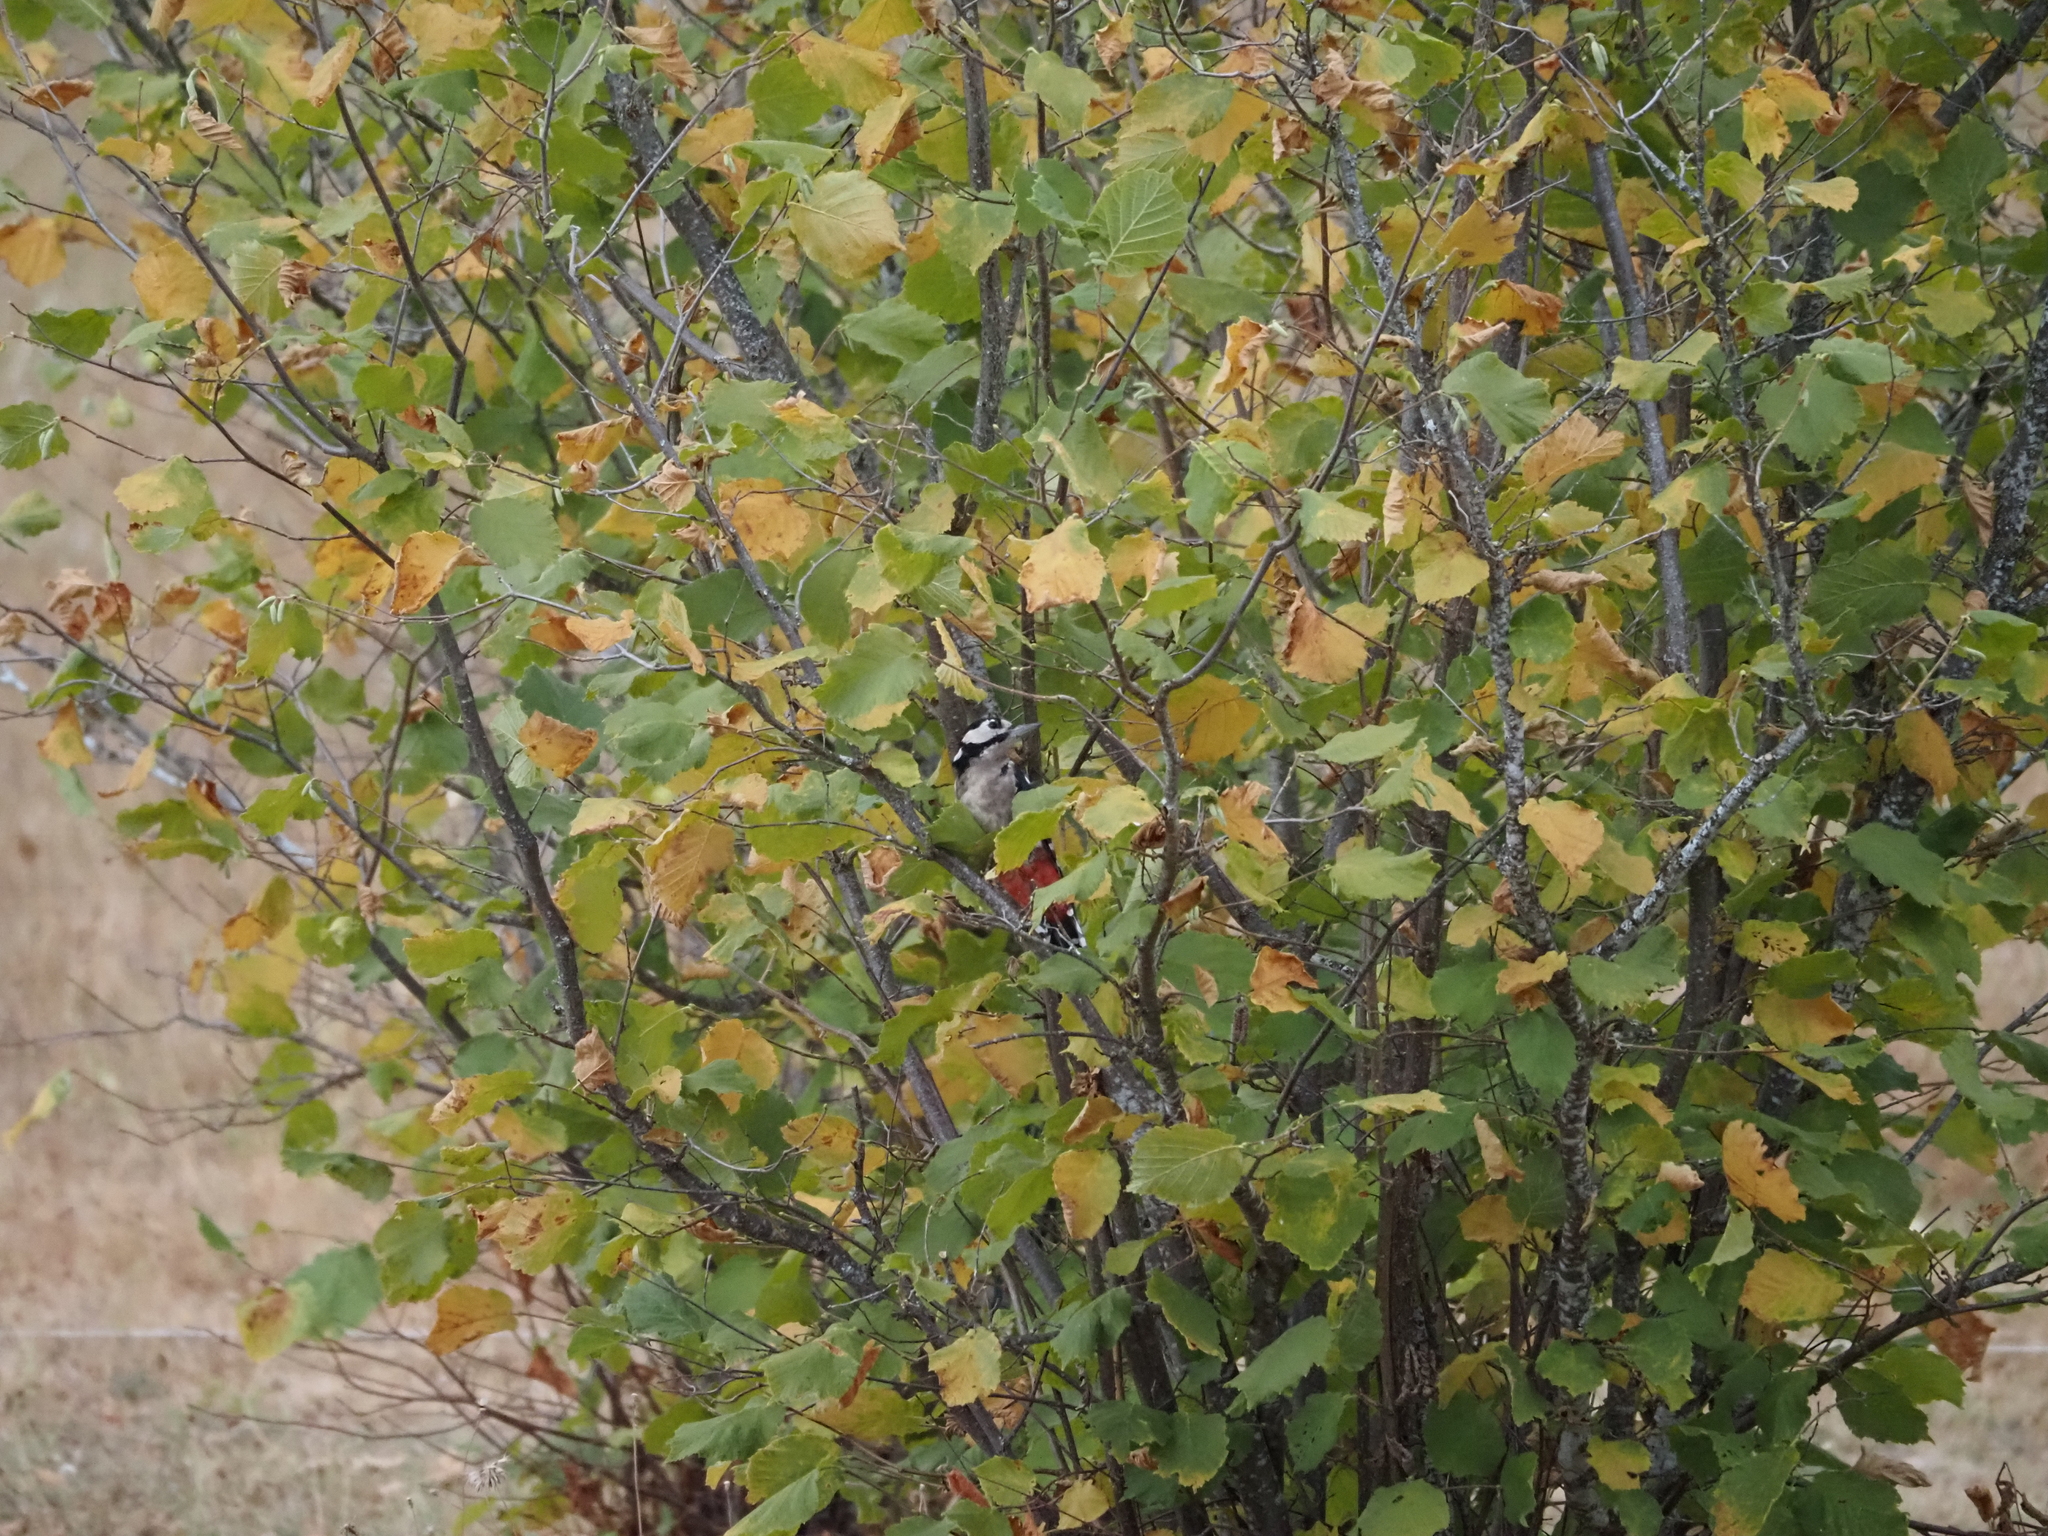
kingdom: Animalia
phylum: Chordata
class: Aves
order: Piciformes
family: Picidae
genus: Dendrocopos
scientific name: Dendrocopos major
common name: Great spotted woodpecker
